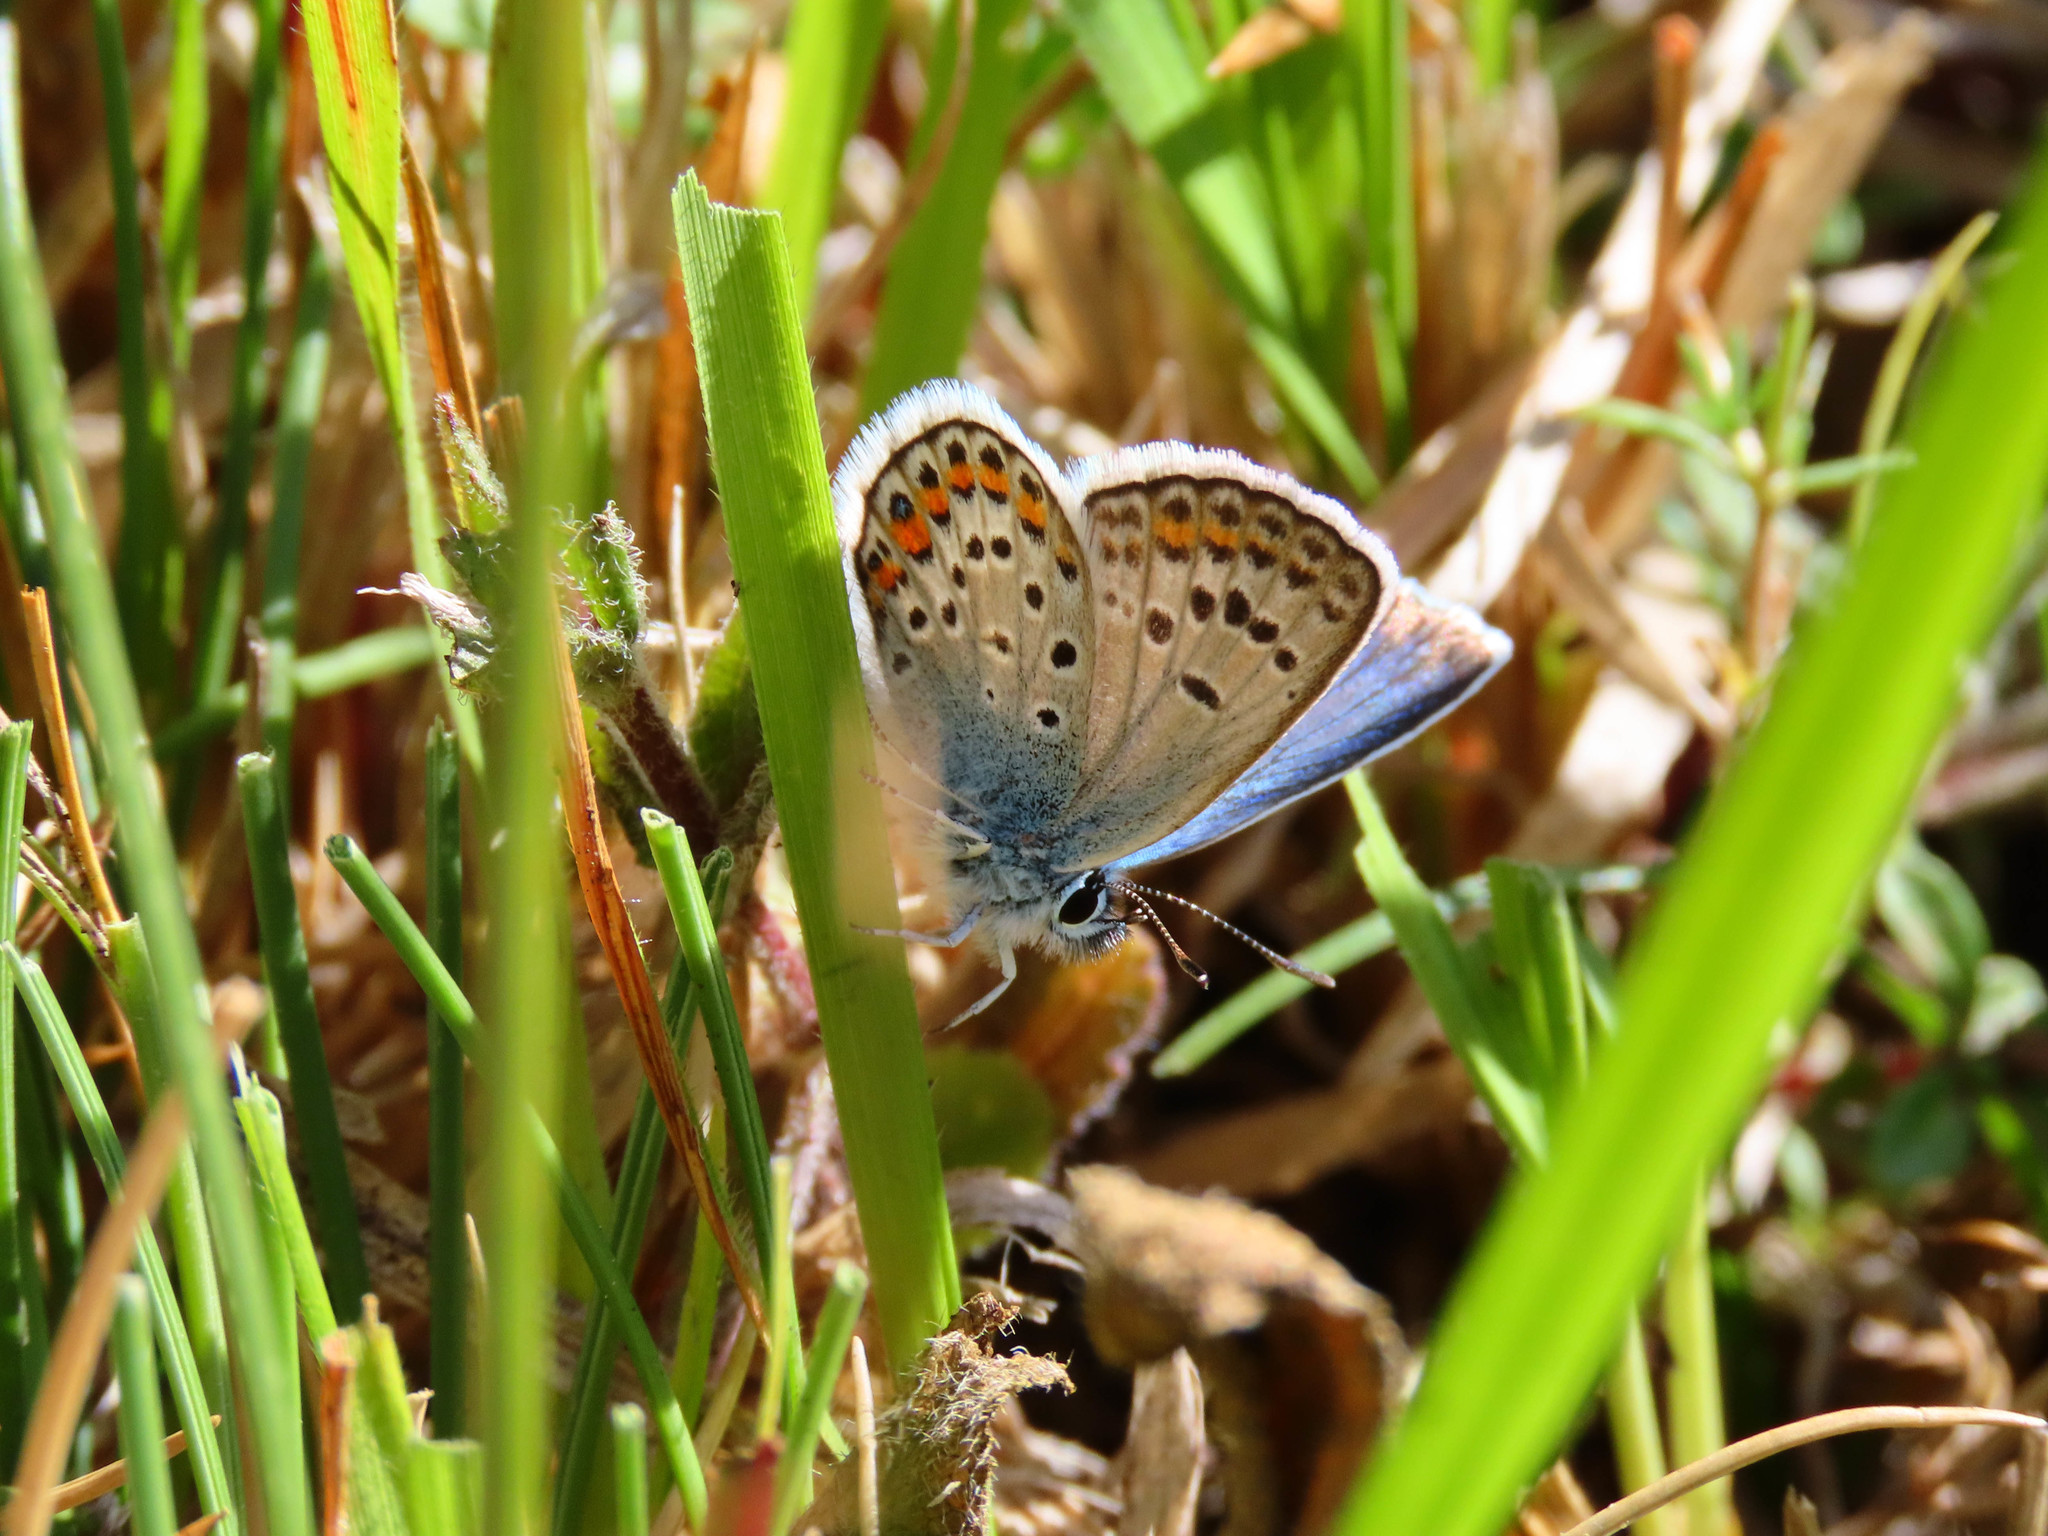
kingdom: Animalia
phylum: Arthropoda
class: Insecta
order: Lepidoptera
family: Lycaenidae
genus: Plebejus
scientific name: Plebejus argus
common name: Silver-studded blue
